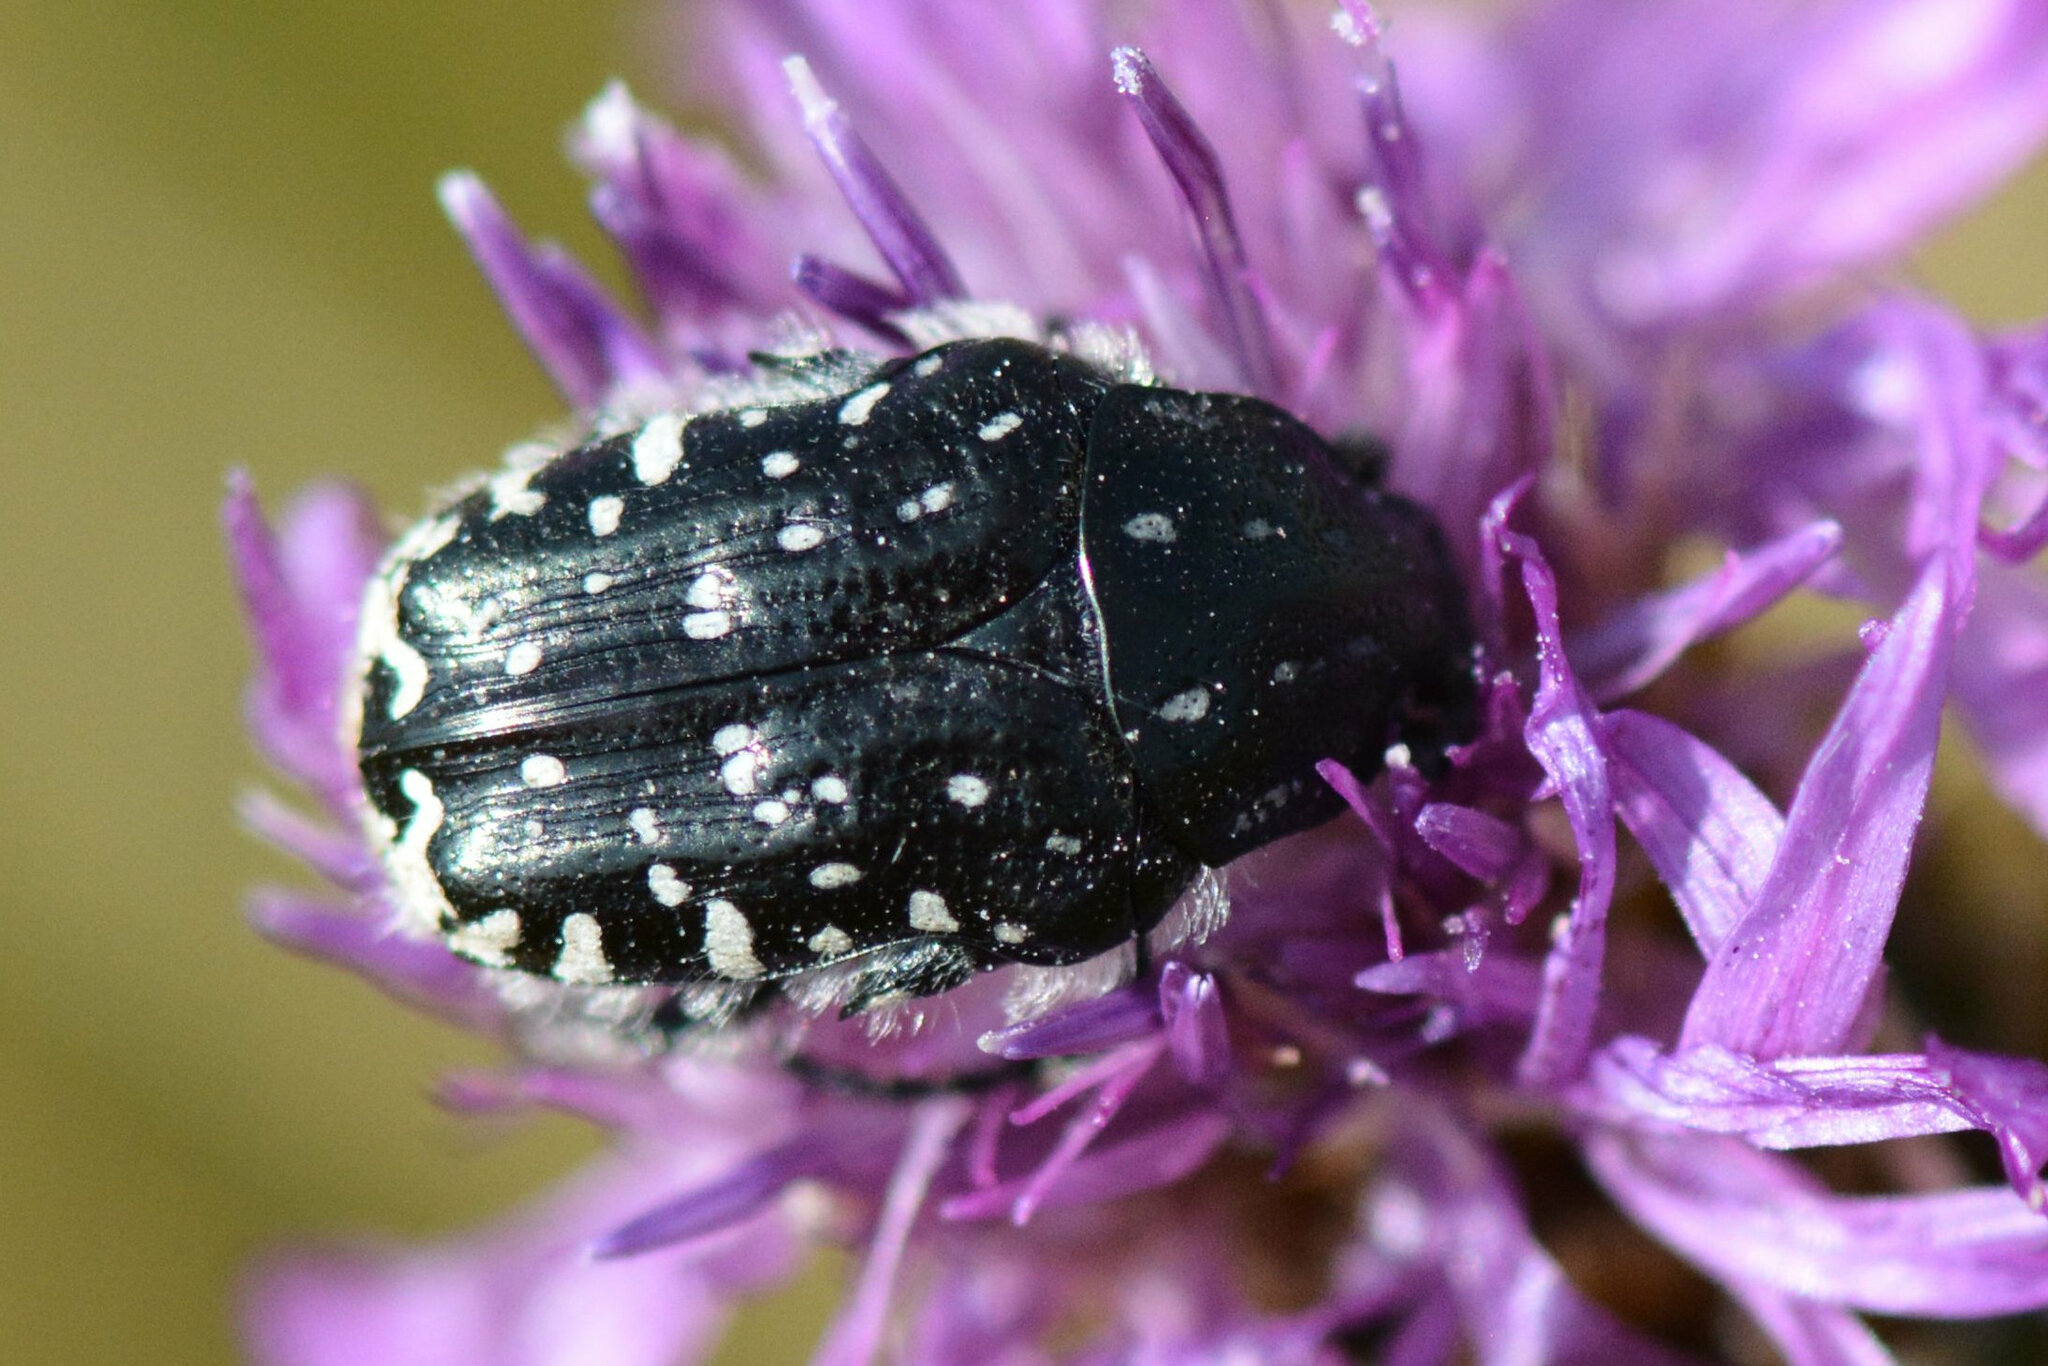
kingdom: Animalia
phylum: Arthropoda
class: Insecta
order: Coleoptera
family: Scarabaeidae
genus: Oxythyrea
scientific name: Oxythyrea funesta
